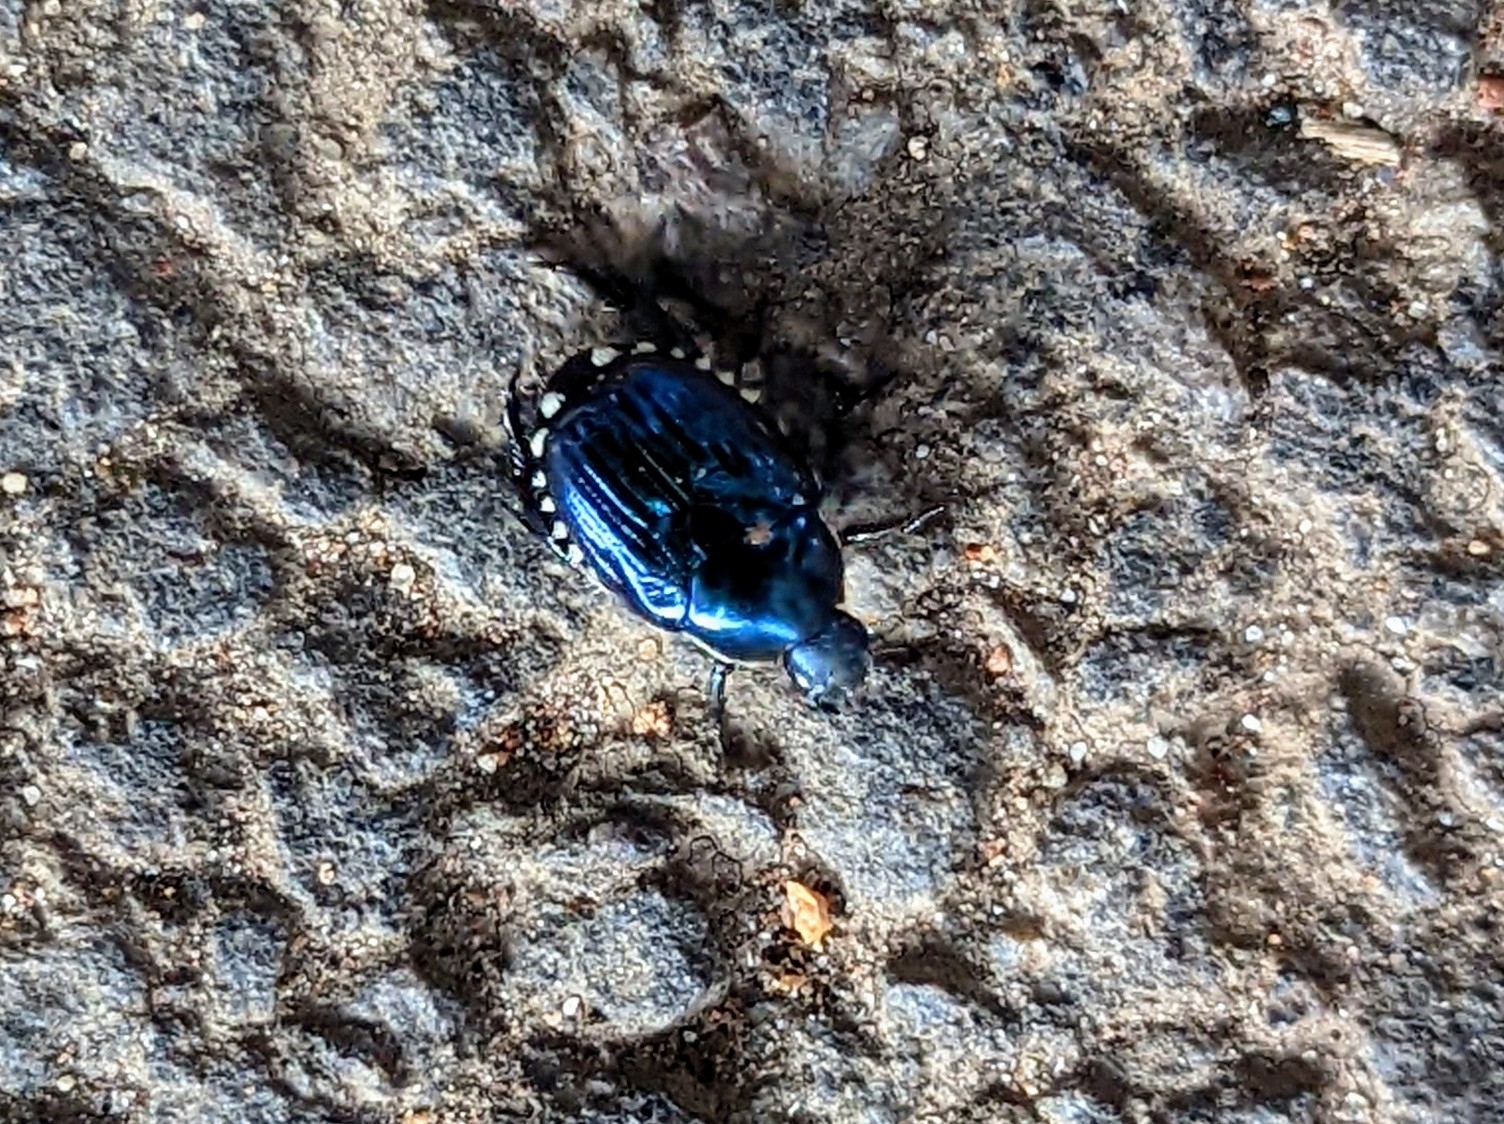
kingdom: Animalia
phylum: Arthropoda
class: Insecta
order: Coleoptera
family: Scarabaeidae
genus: Popillia
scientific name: Popillia propinqua
